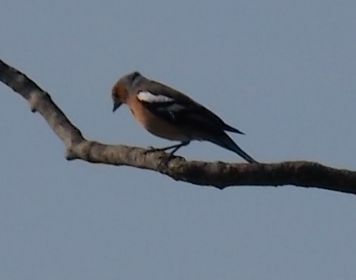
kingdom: Animalia
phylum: Chordata
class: Aves
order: Passeriformes
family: Fringillidae
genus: Fringilla
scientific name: Fringilla coelebs
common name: Common chaffinch
